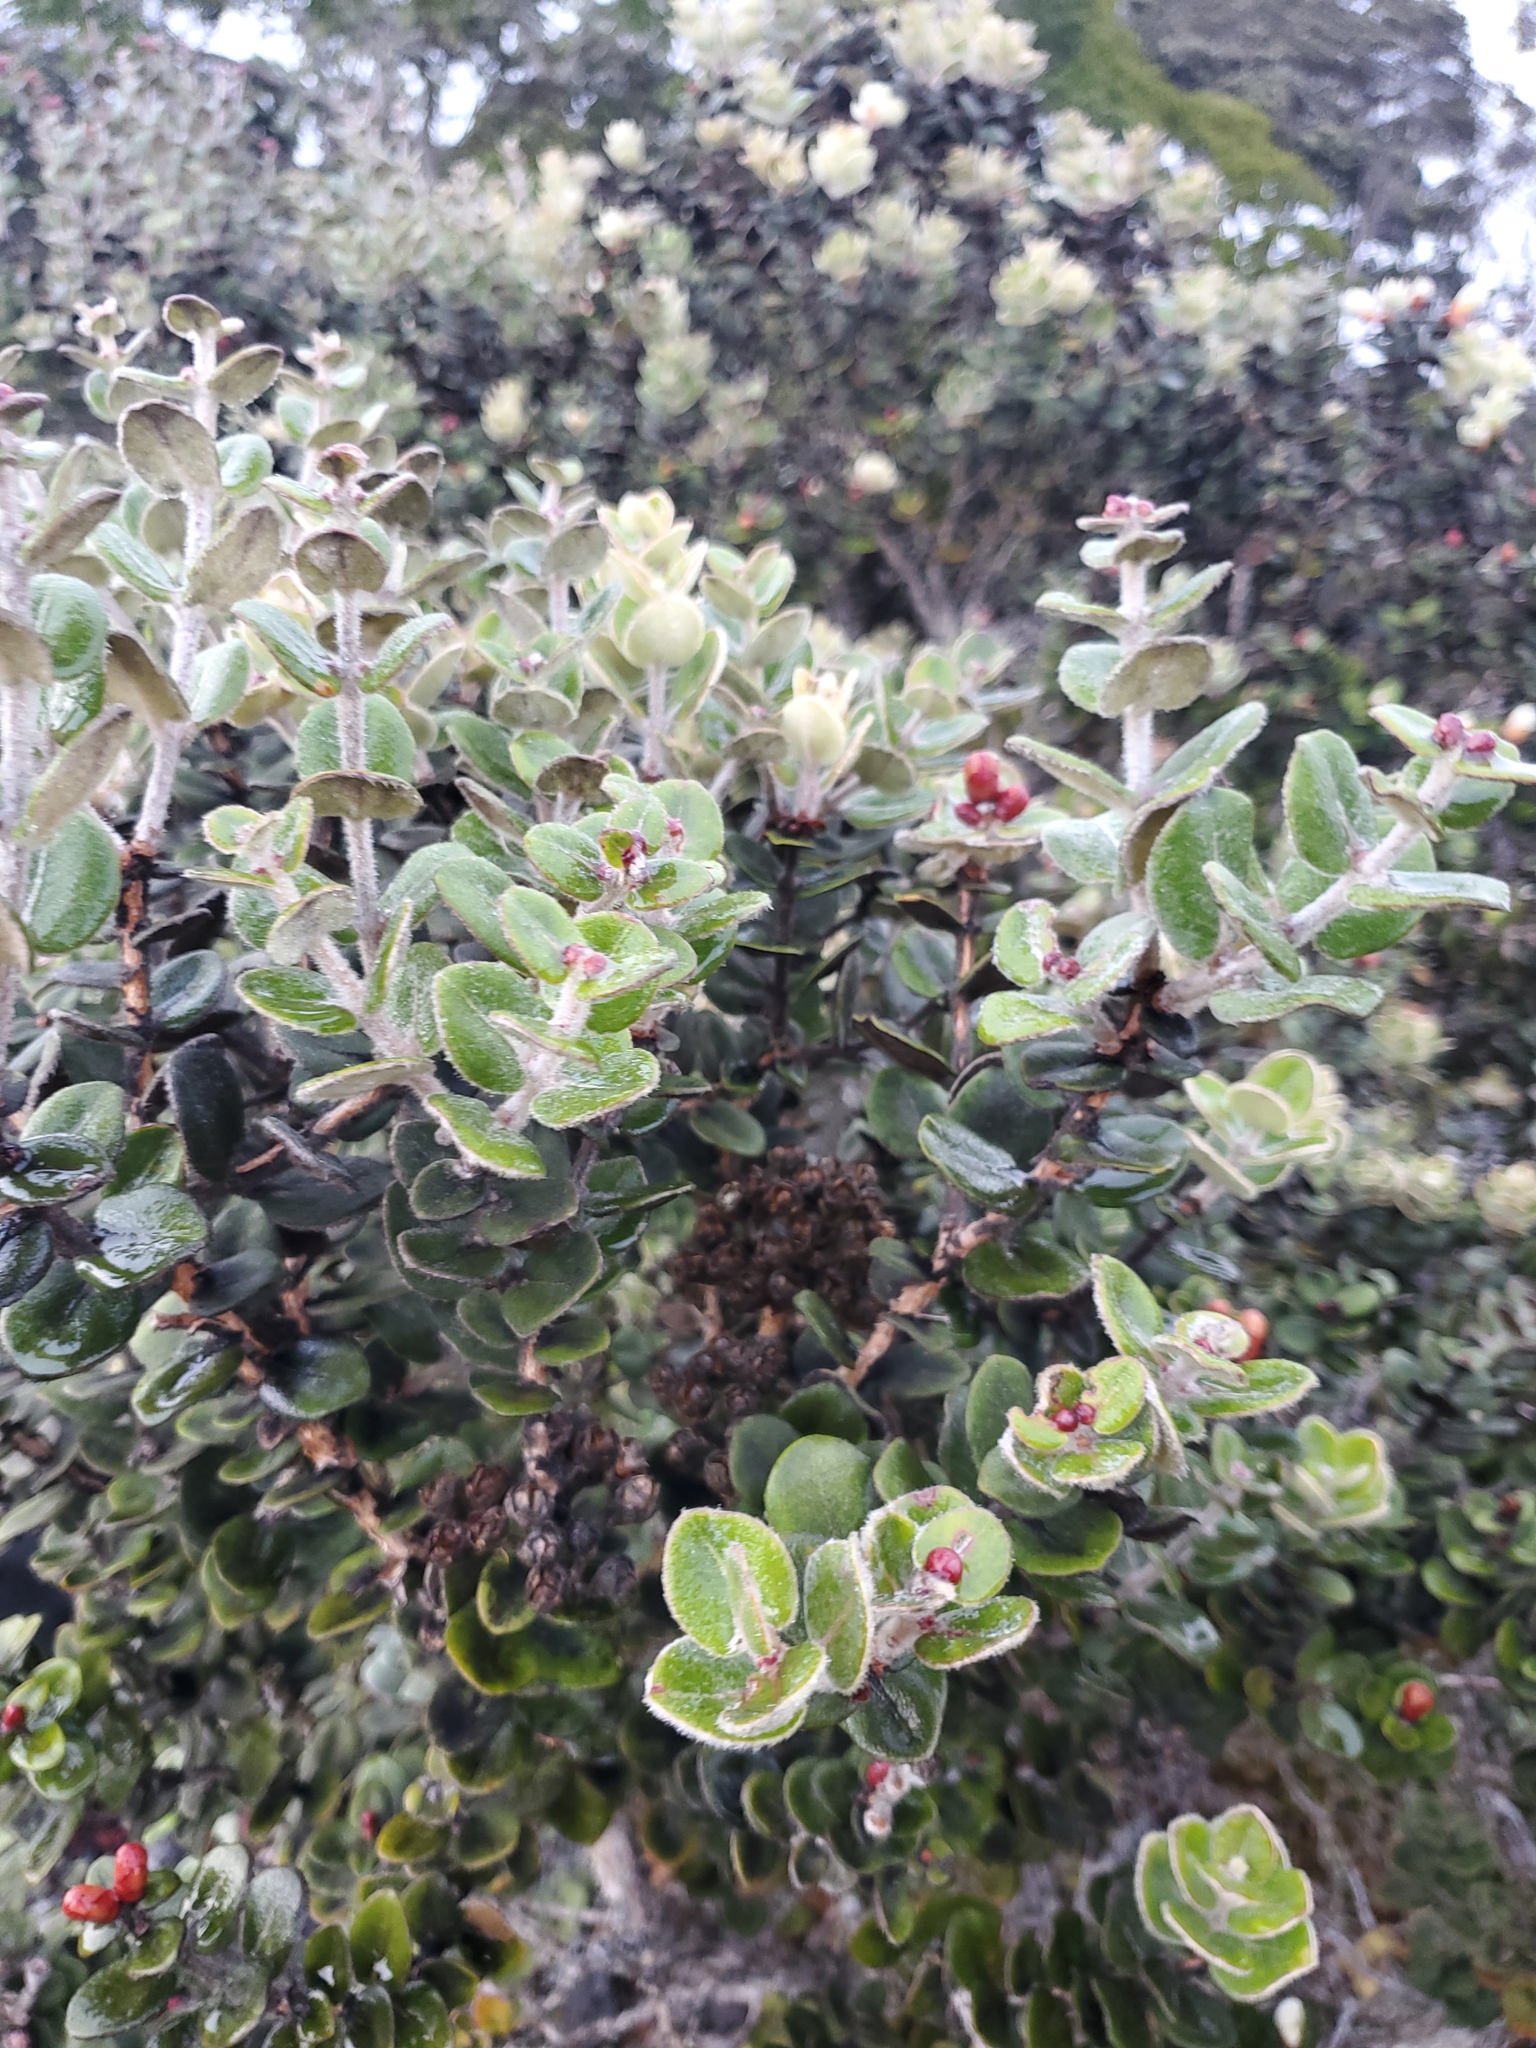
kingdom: Plantae
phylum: Tracheophyta
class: Magnoliopsida
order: Myrtales
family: Myrtaceae
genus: Metrosideros
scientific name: Metrosideros polymorpha
